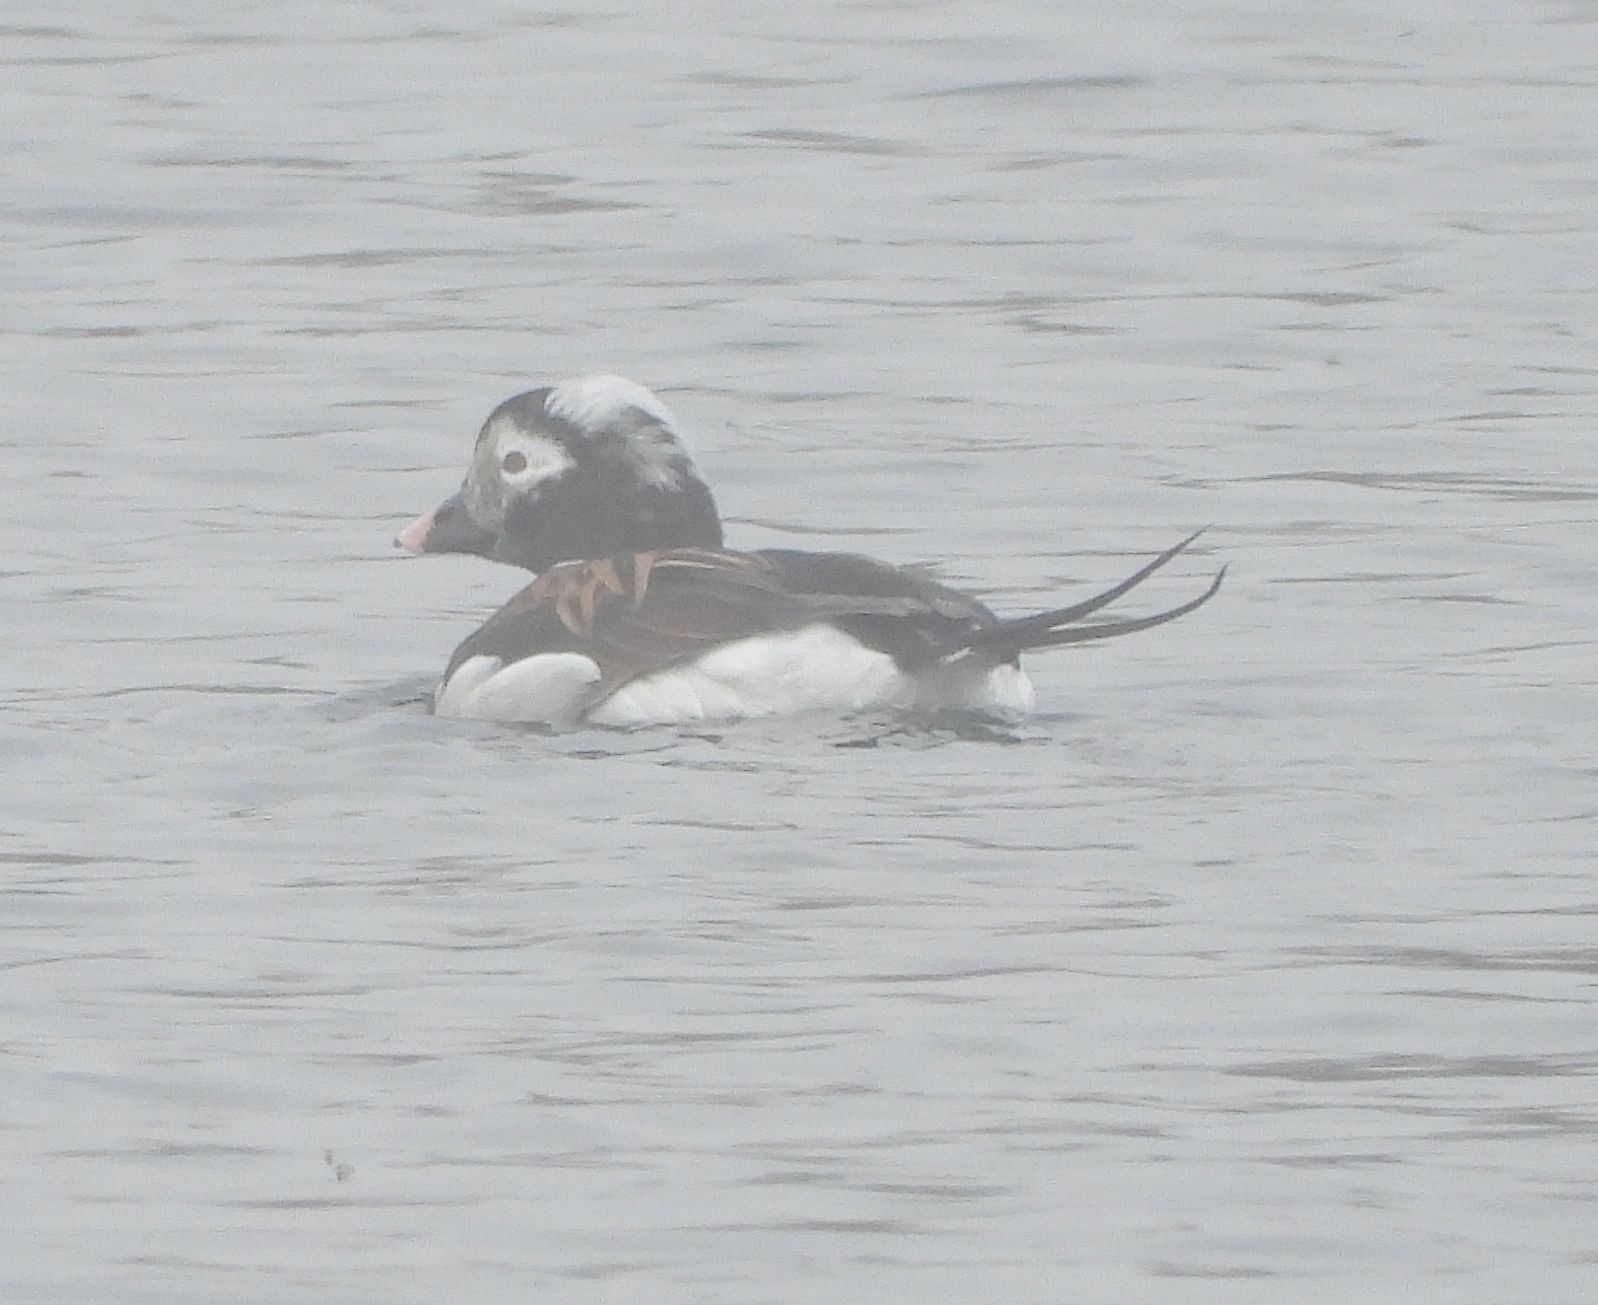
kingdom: Animalia
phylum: Chordata
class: Aves
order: Anseriformes
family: Anatidae
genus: Clangula
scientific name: Clangula hyemalis
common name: Long-tailed duck
